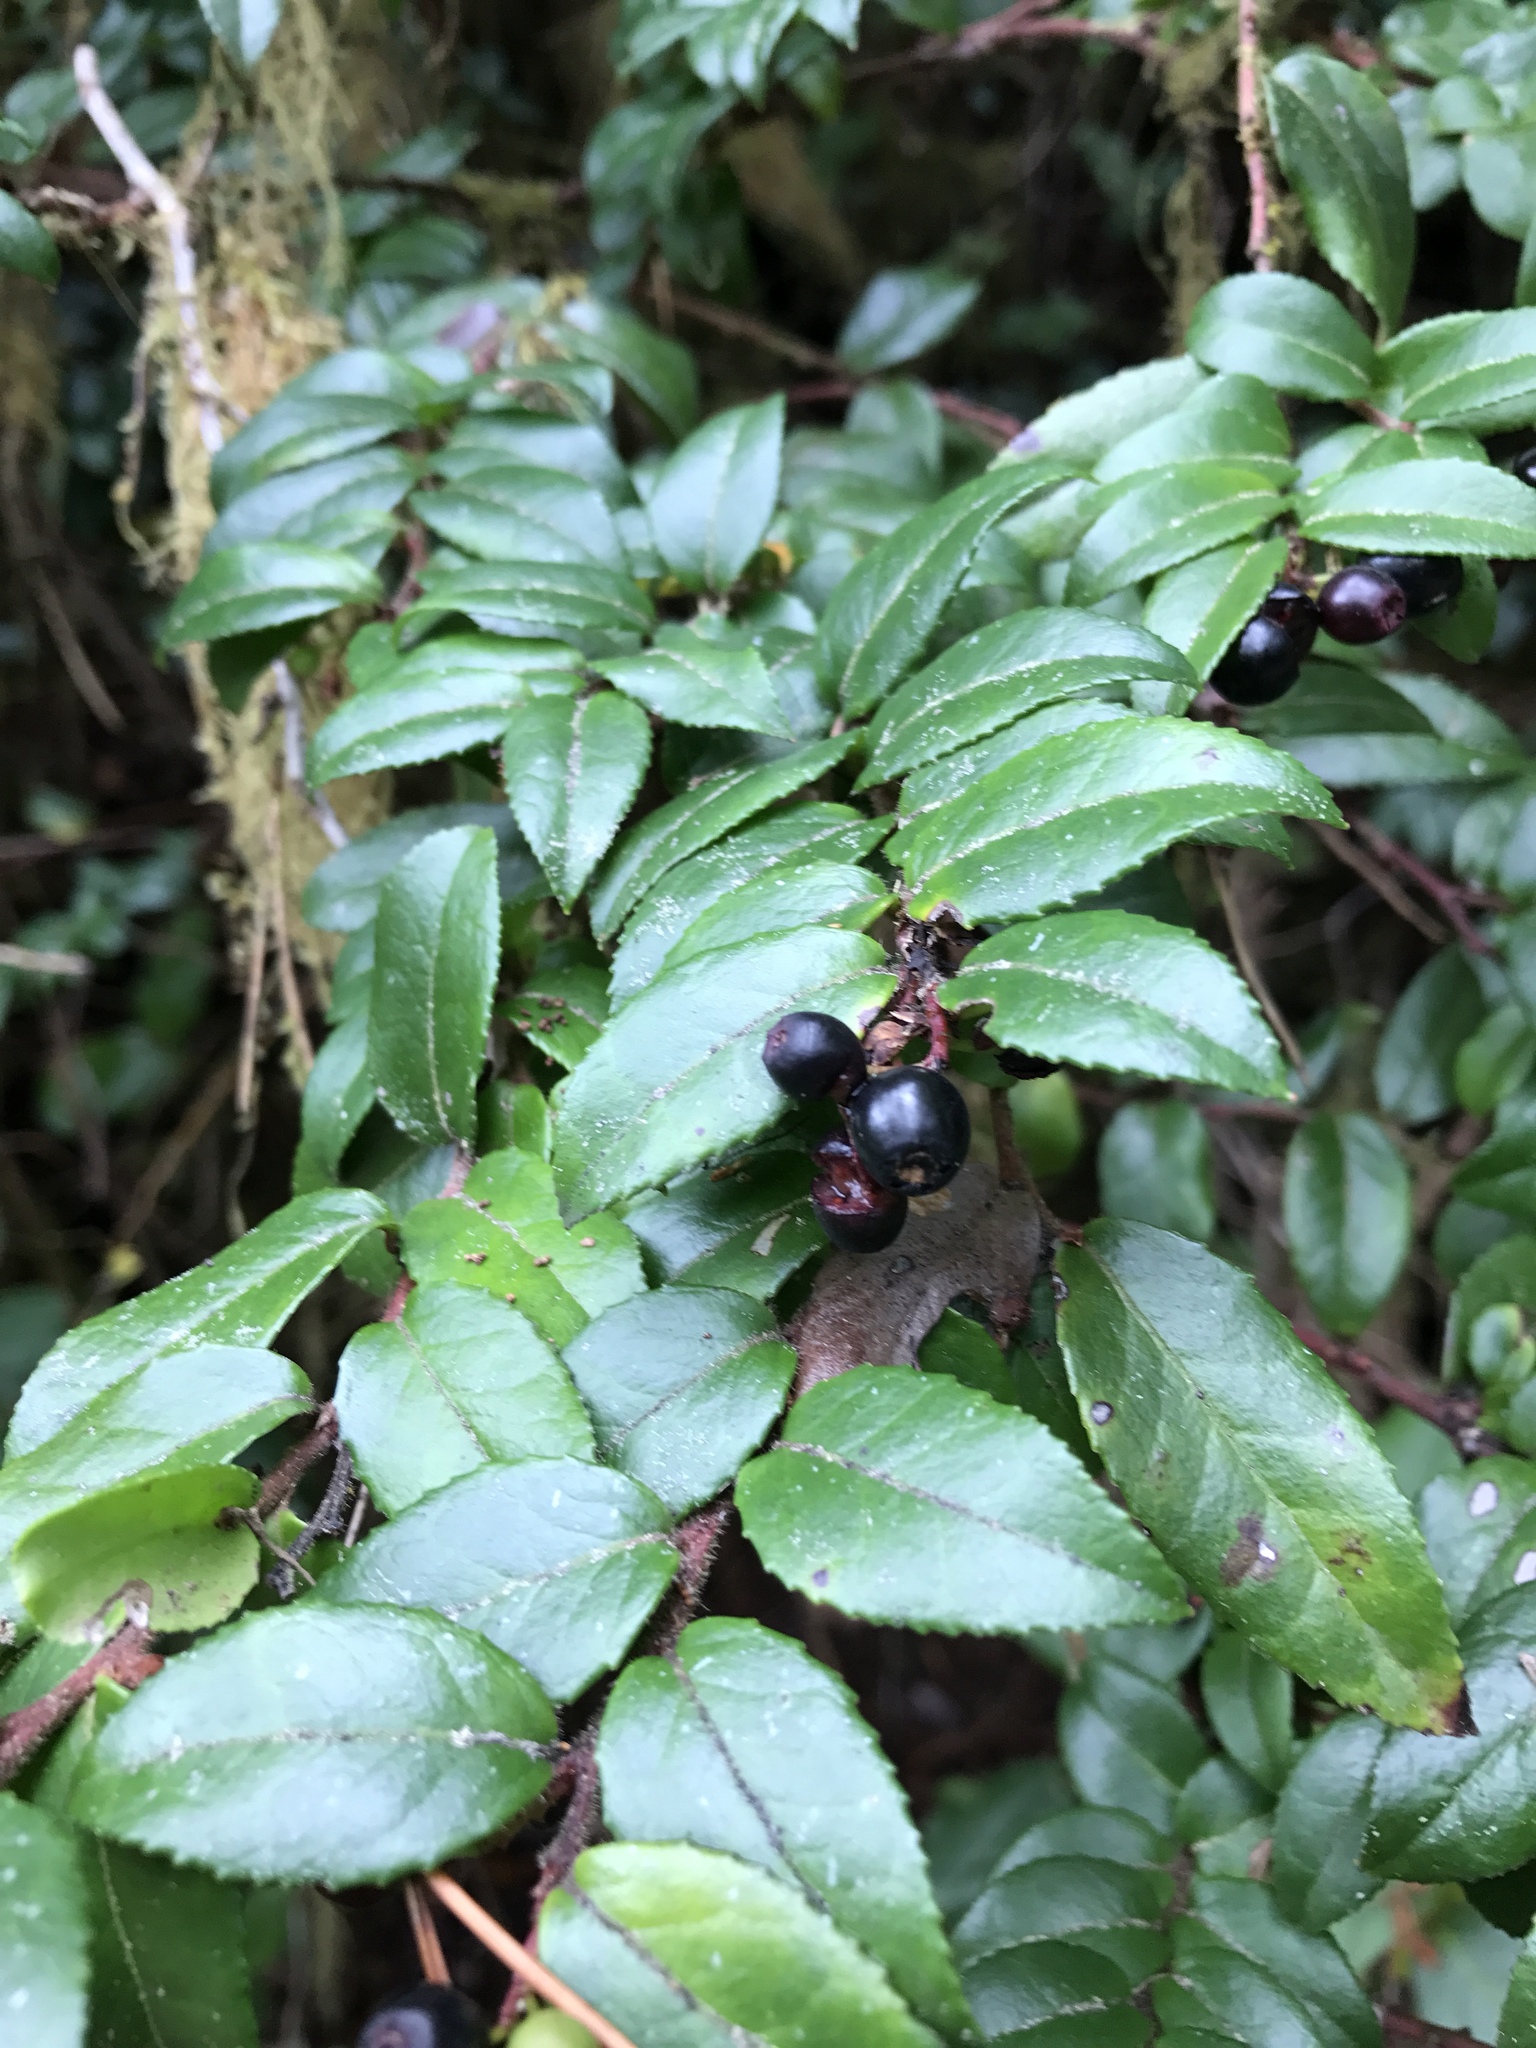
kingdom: Plantae
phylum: Tracheophyta
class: Magnoliopsida
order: Ericales
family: Ericaceae
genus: Vaccinium
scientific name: Vaccinium ovatum
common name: California-huckleberry
